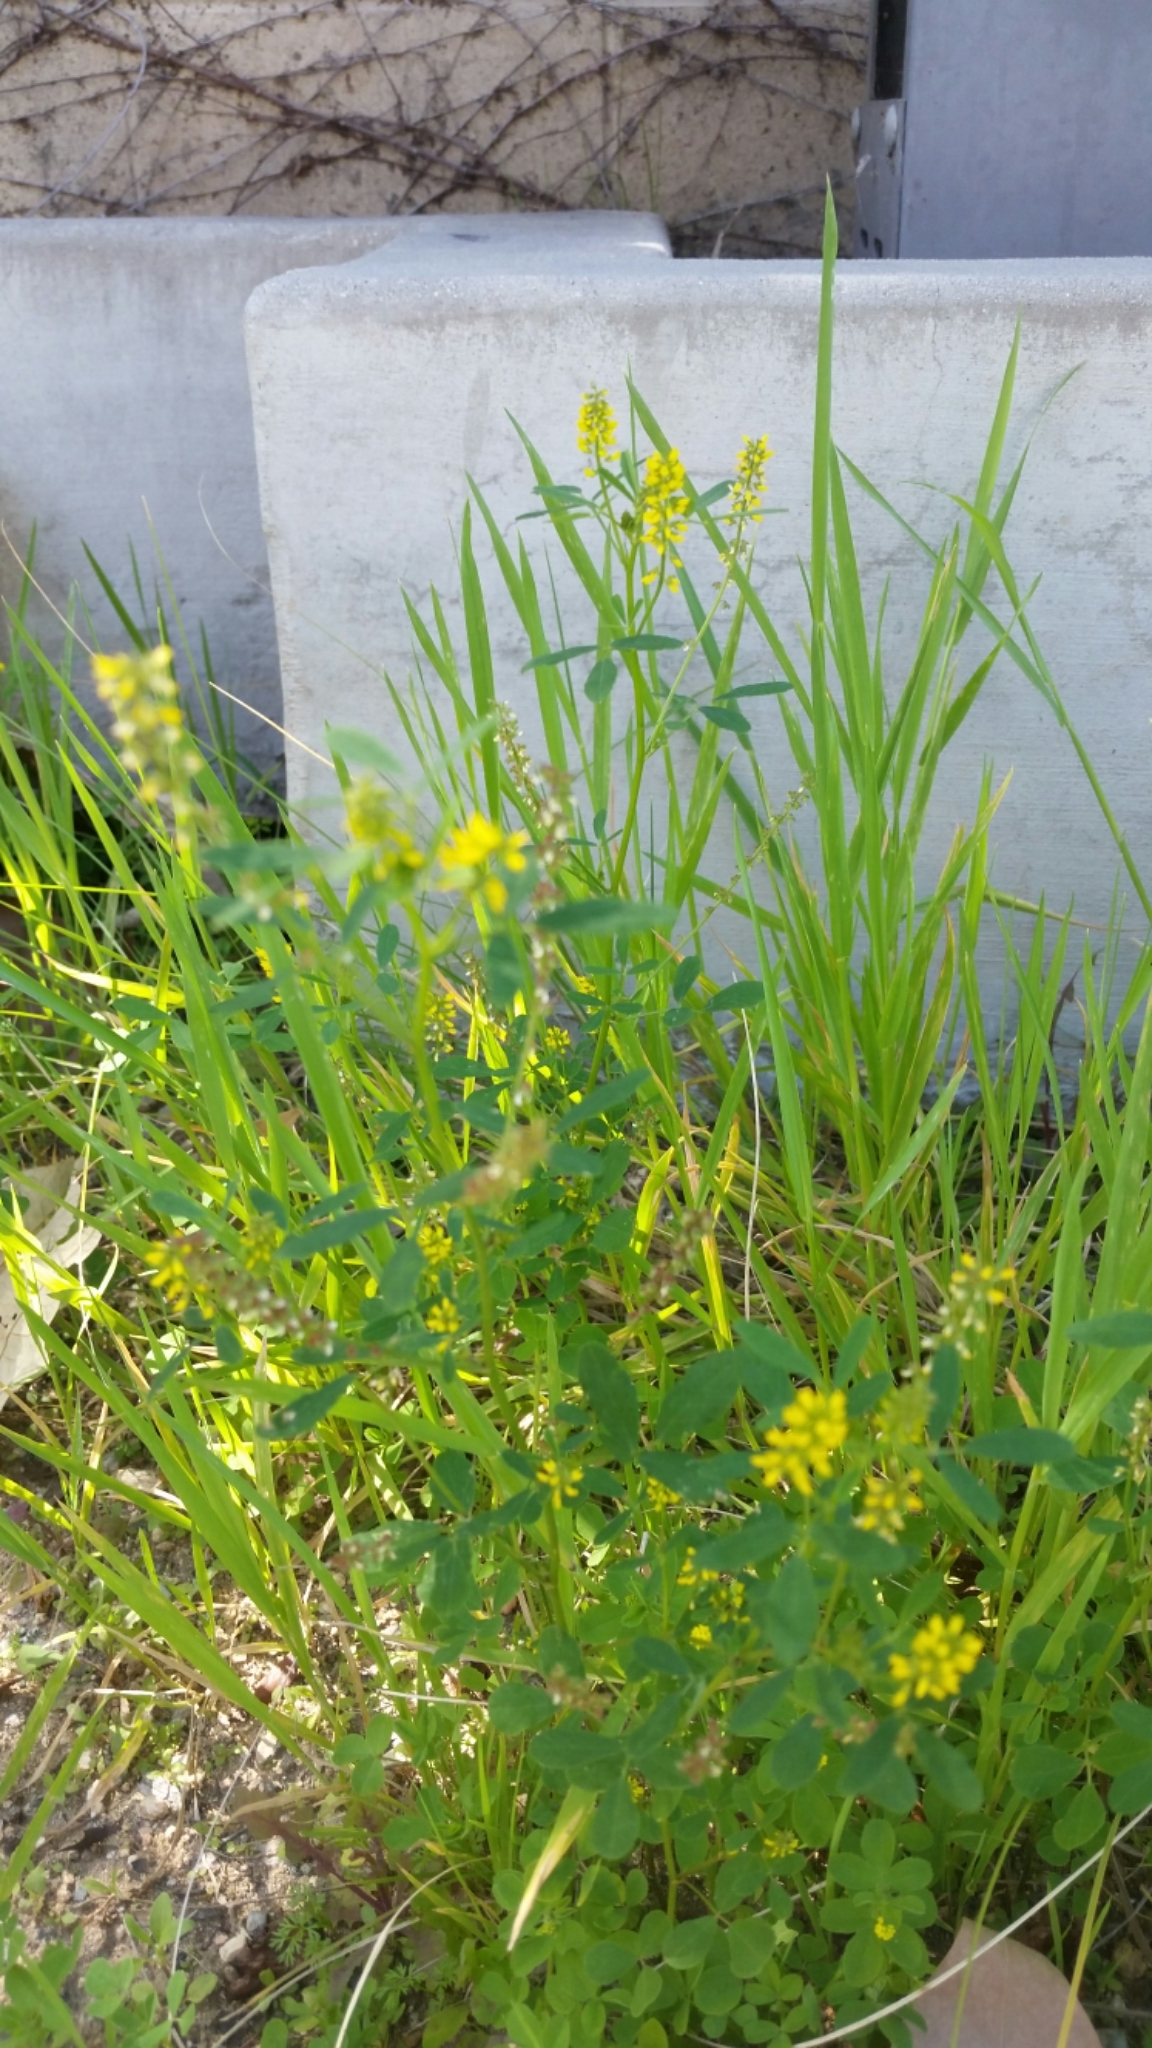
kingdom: Plantae
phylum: Tracheophyta
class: Magnoliopsida
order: Fabales
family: Fabaceae
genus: Melilotus
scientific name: Melilotus indicus
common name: Small melilot
